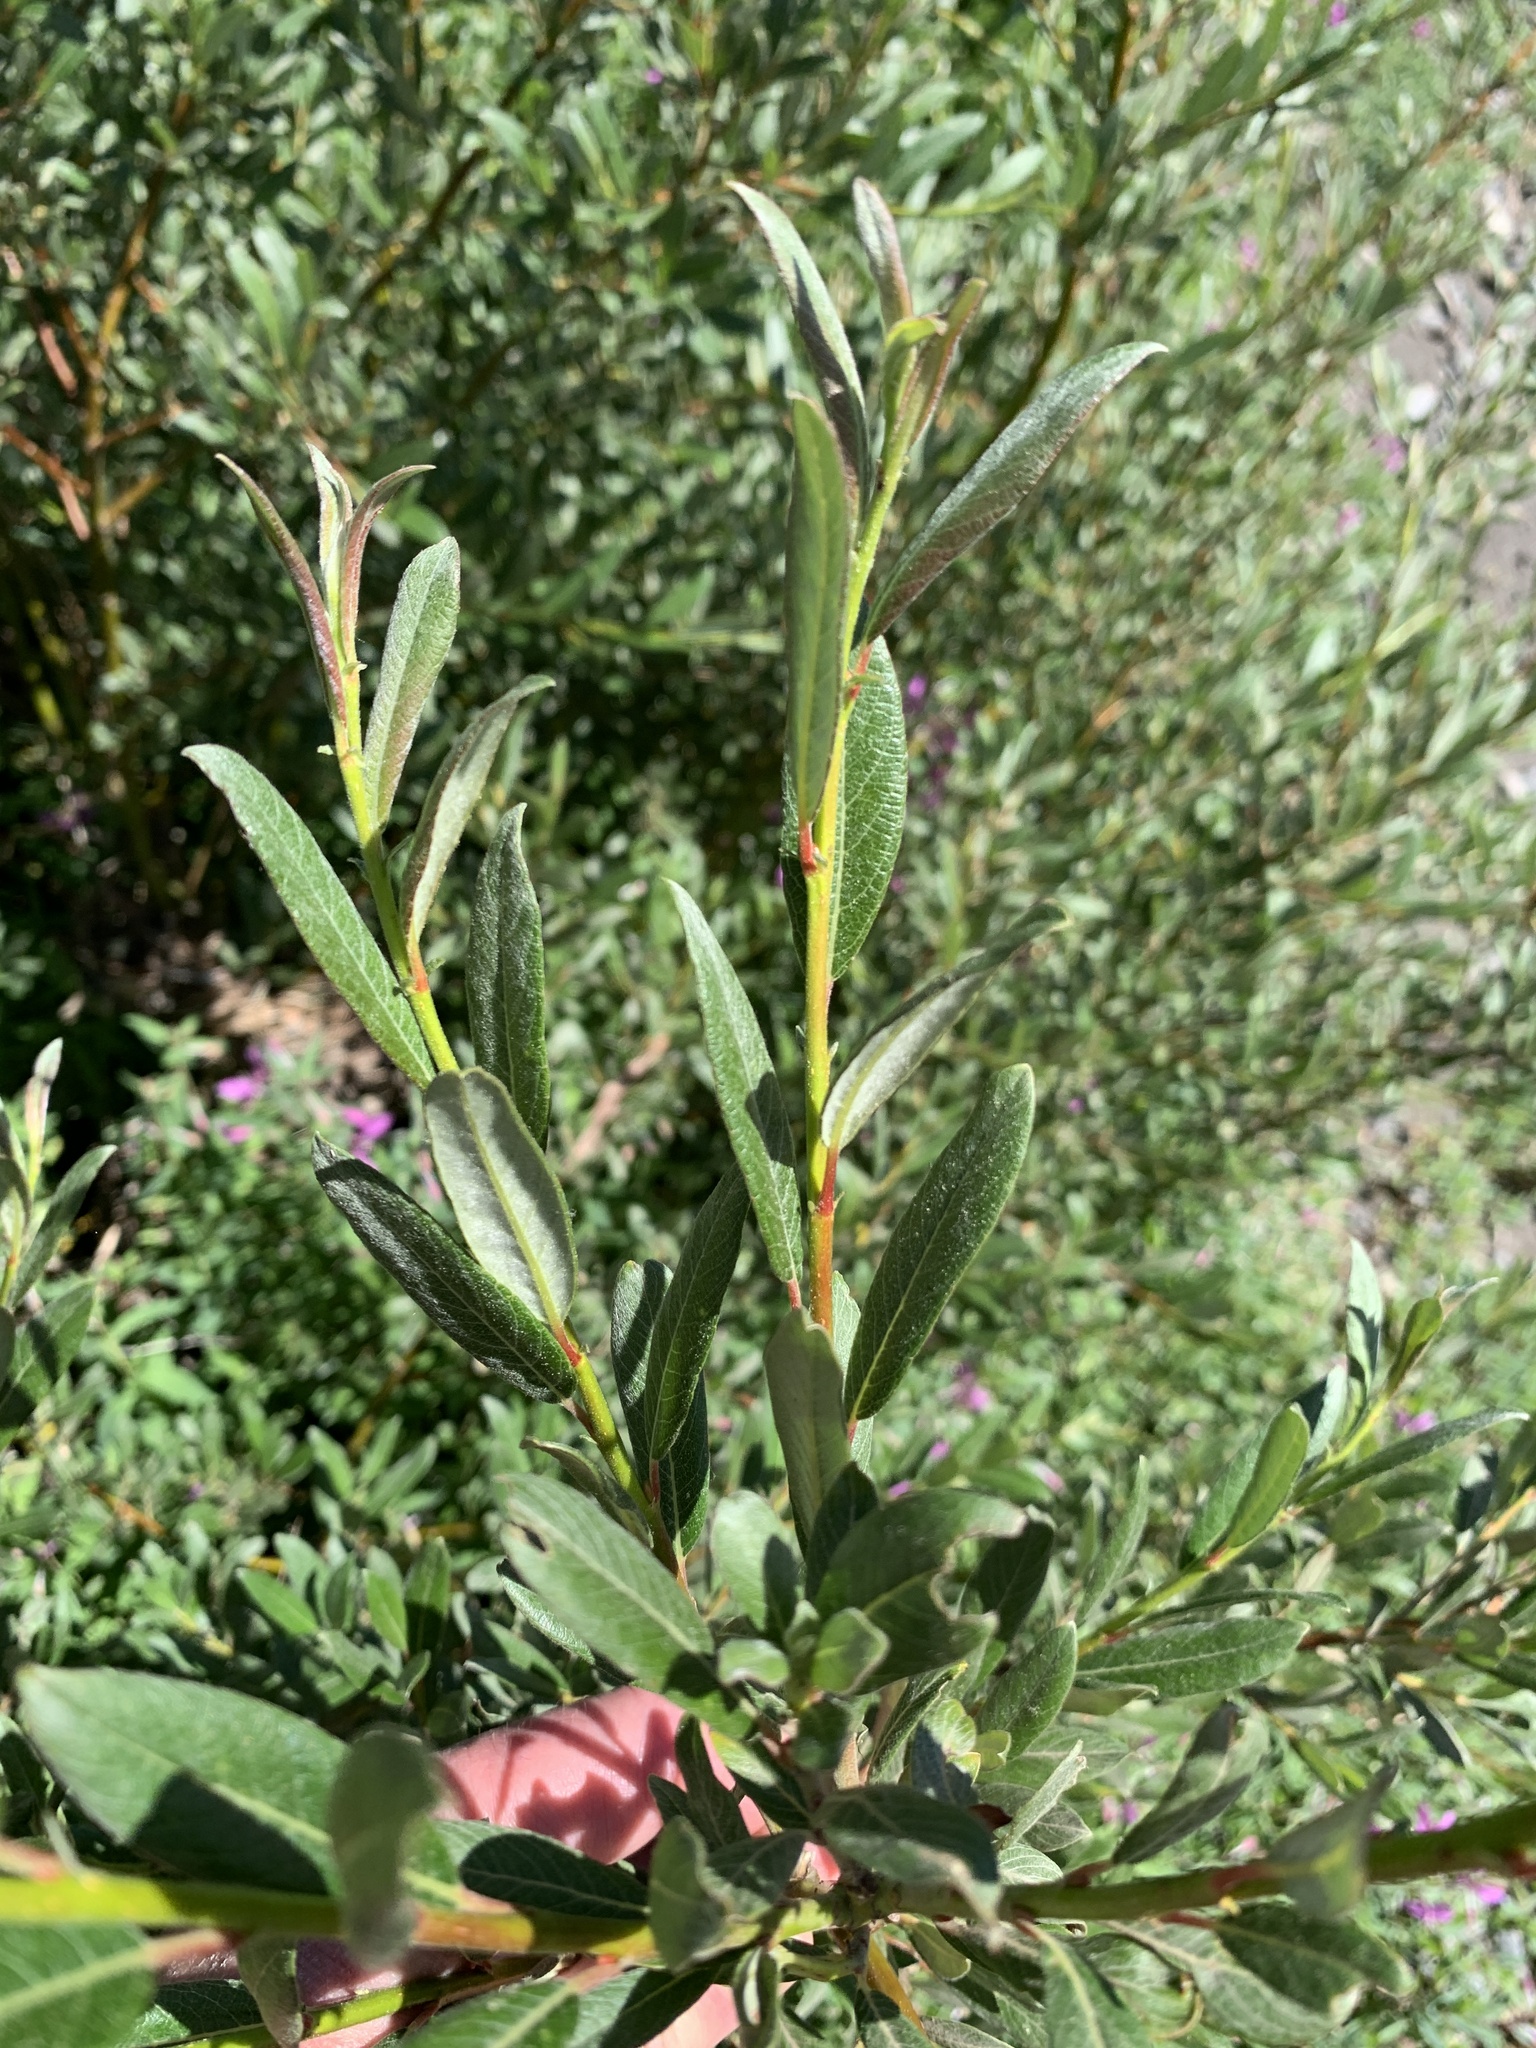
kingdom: Plantae
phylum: Tracheophyta
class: Magnoliopsida
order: Malpighiales
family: Salicaceae
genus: Salix
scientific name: Salix drummondiana
